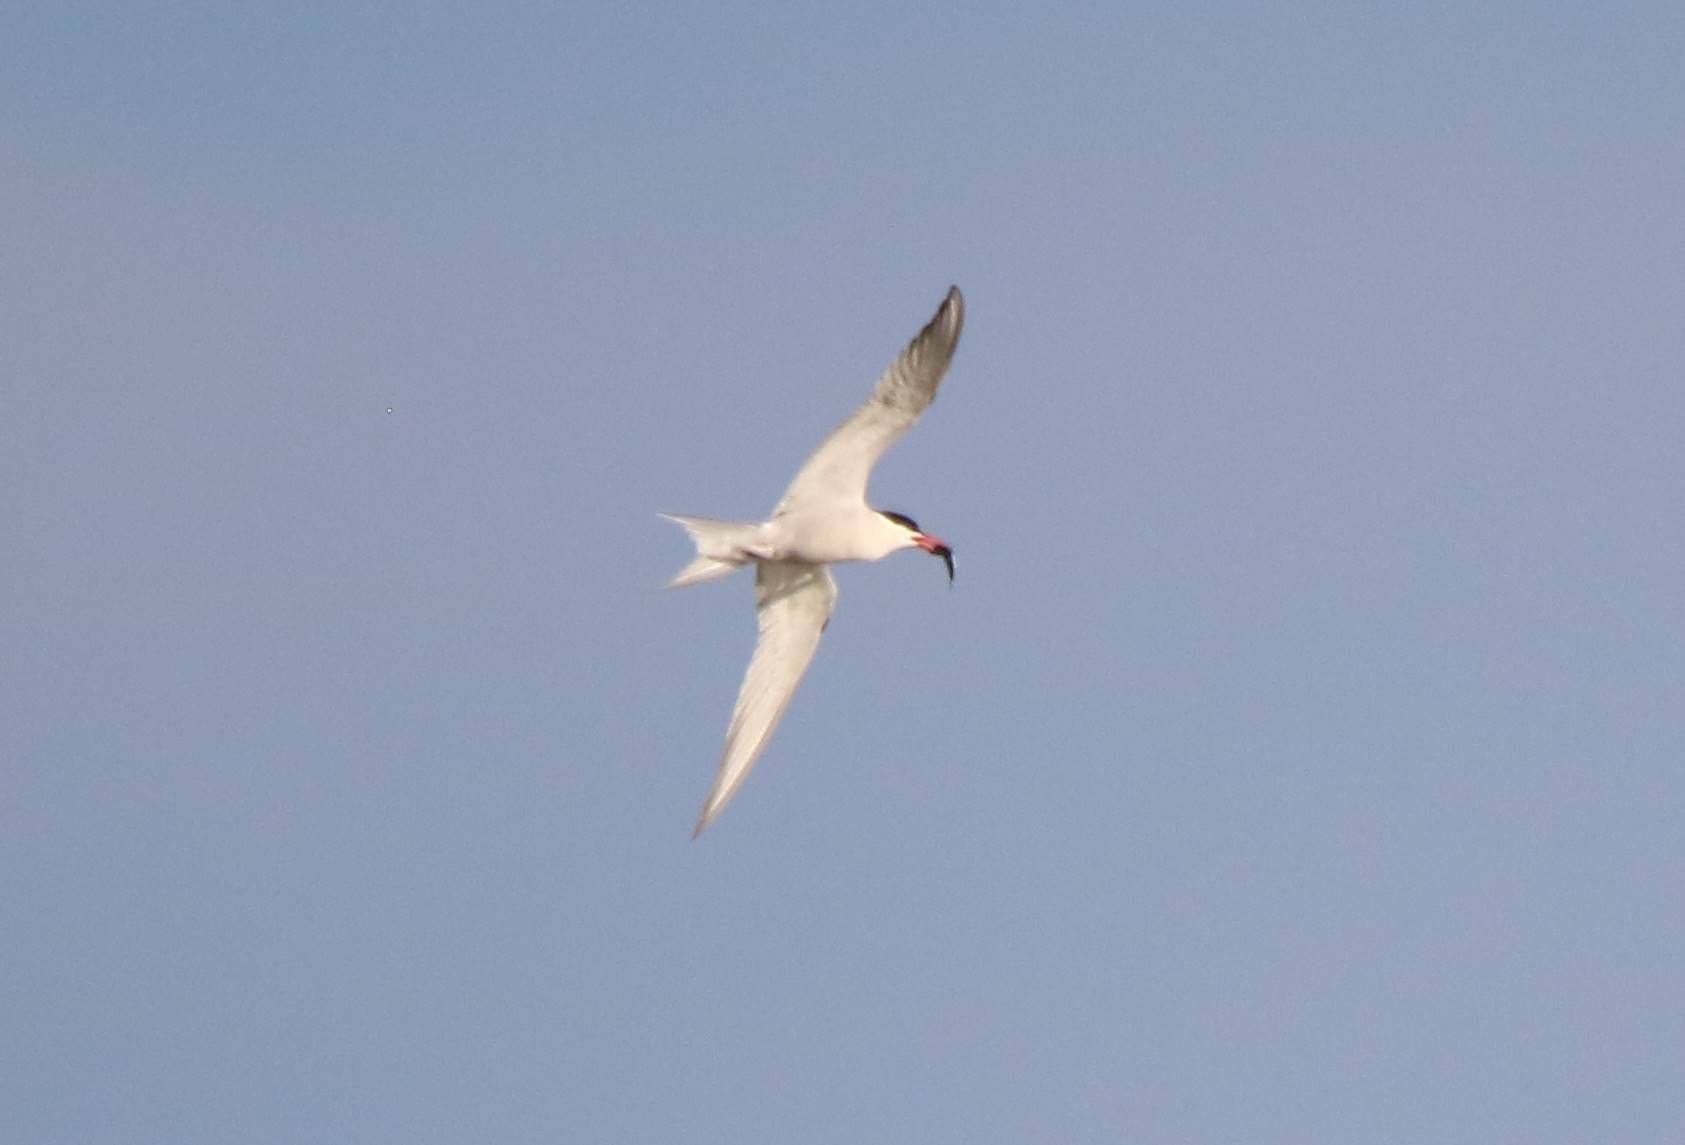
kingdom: Animalia
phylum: Chordata
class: Aves
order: Charadriiformes
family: Laridae
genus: Sterna
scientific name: Sterna hirundo
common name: Common tern
